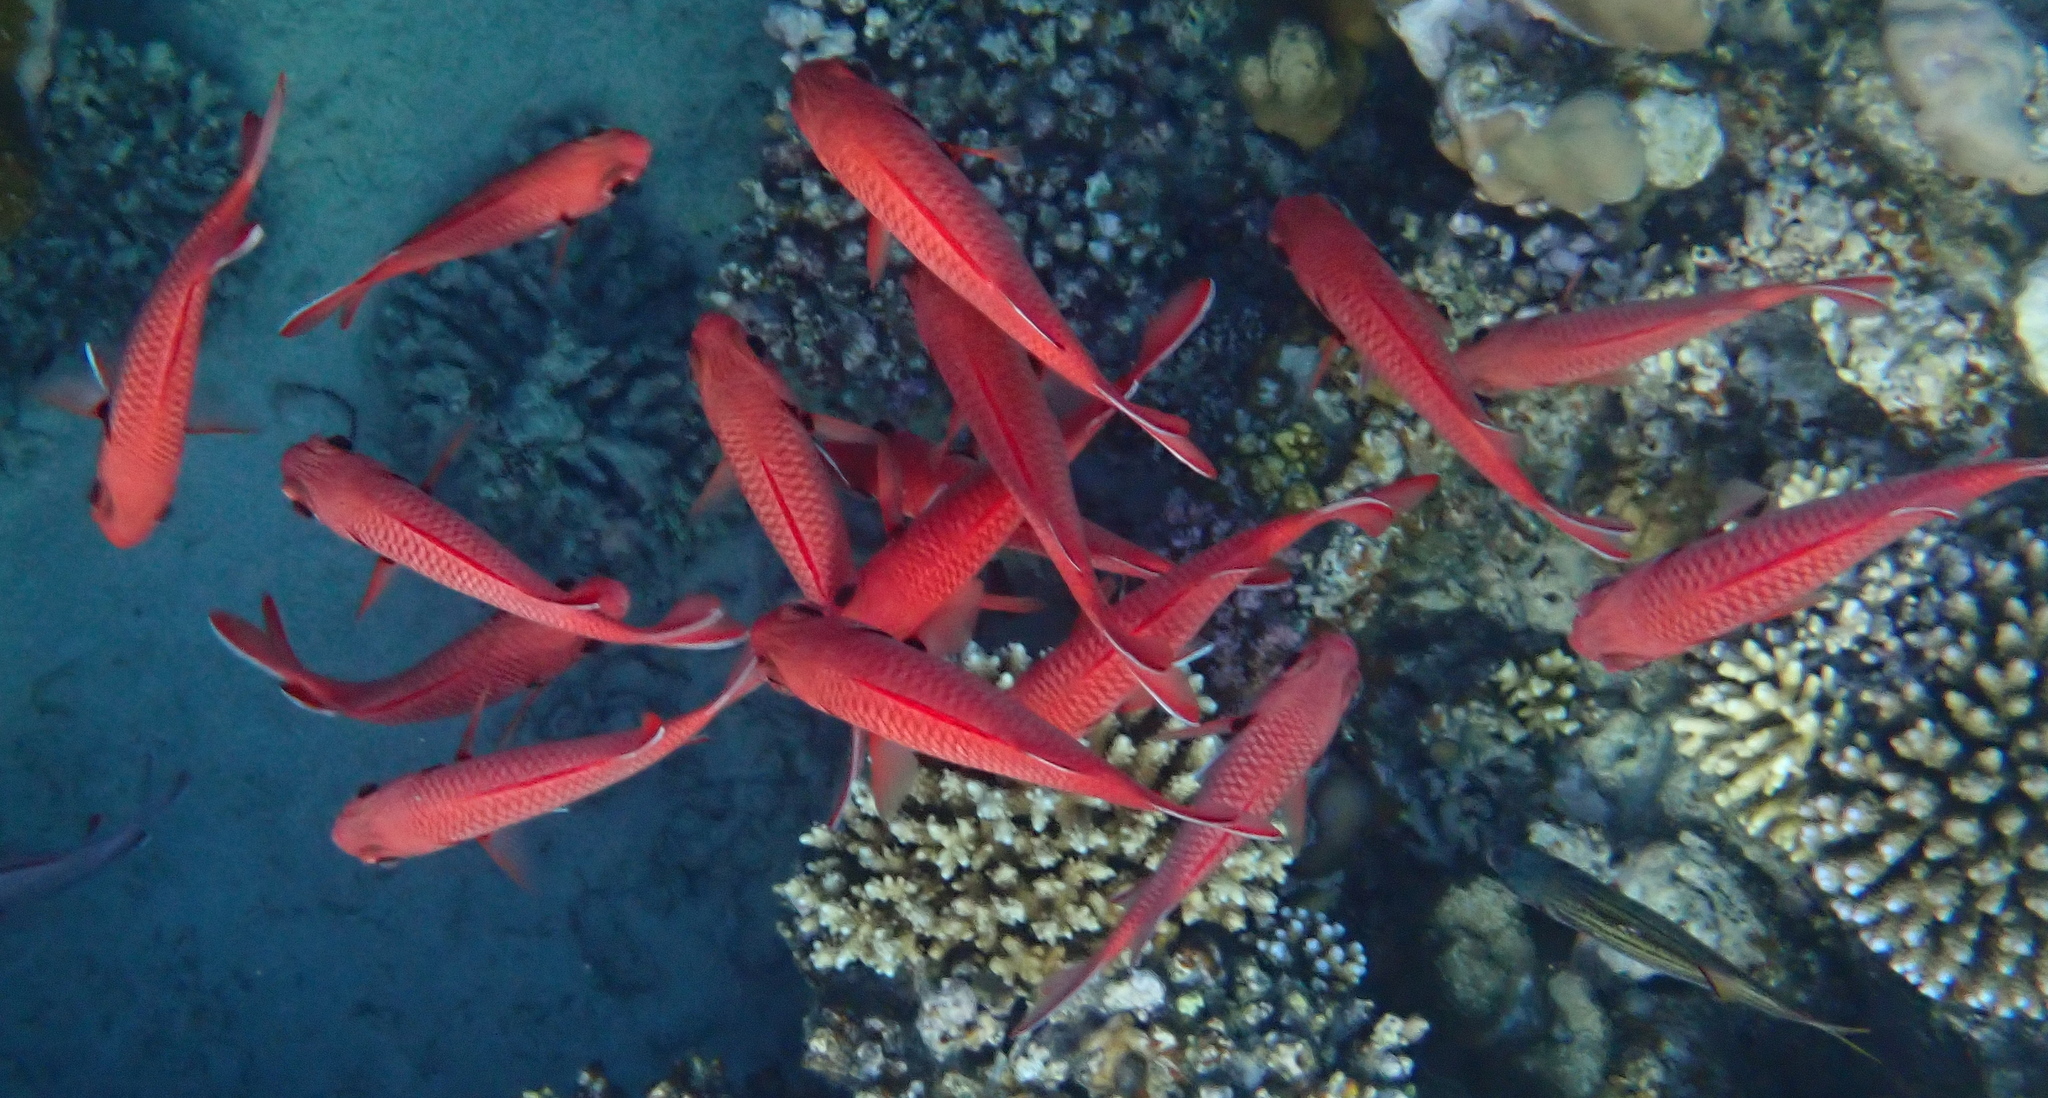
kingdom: Animalia
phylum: Chordata
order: Beryciformes
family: Holocentridae
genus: Myripristis
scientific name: Myripristis murdjan
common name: Big-eye soldierfish
